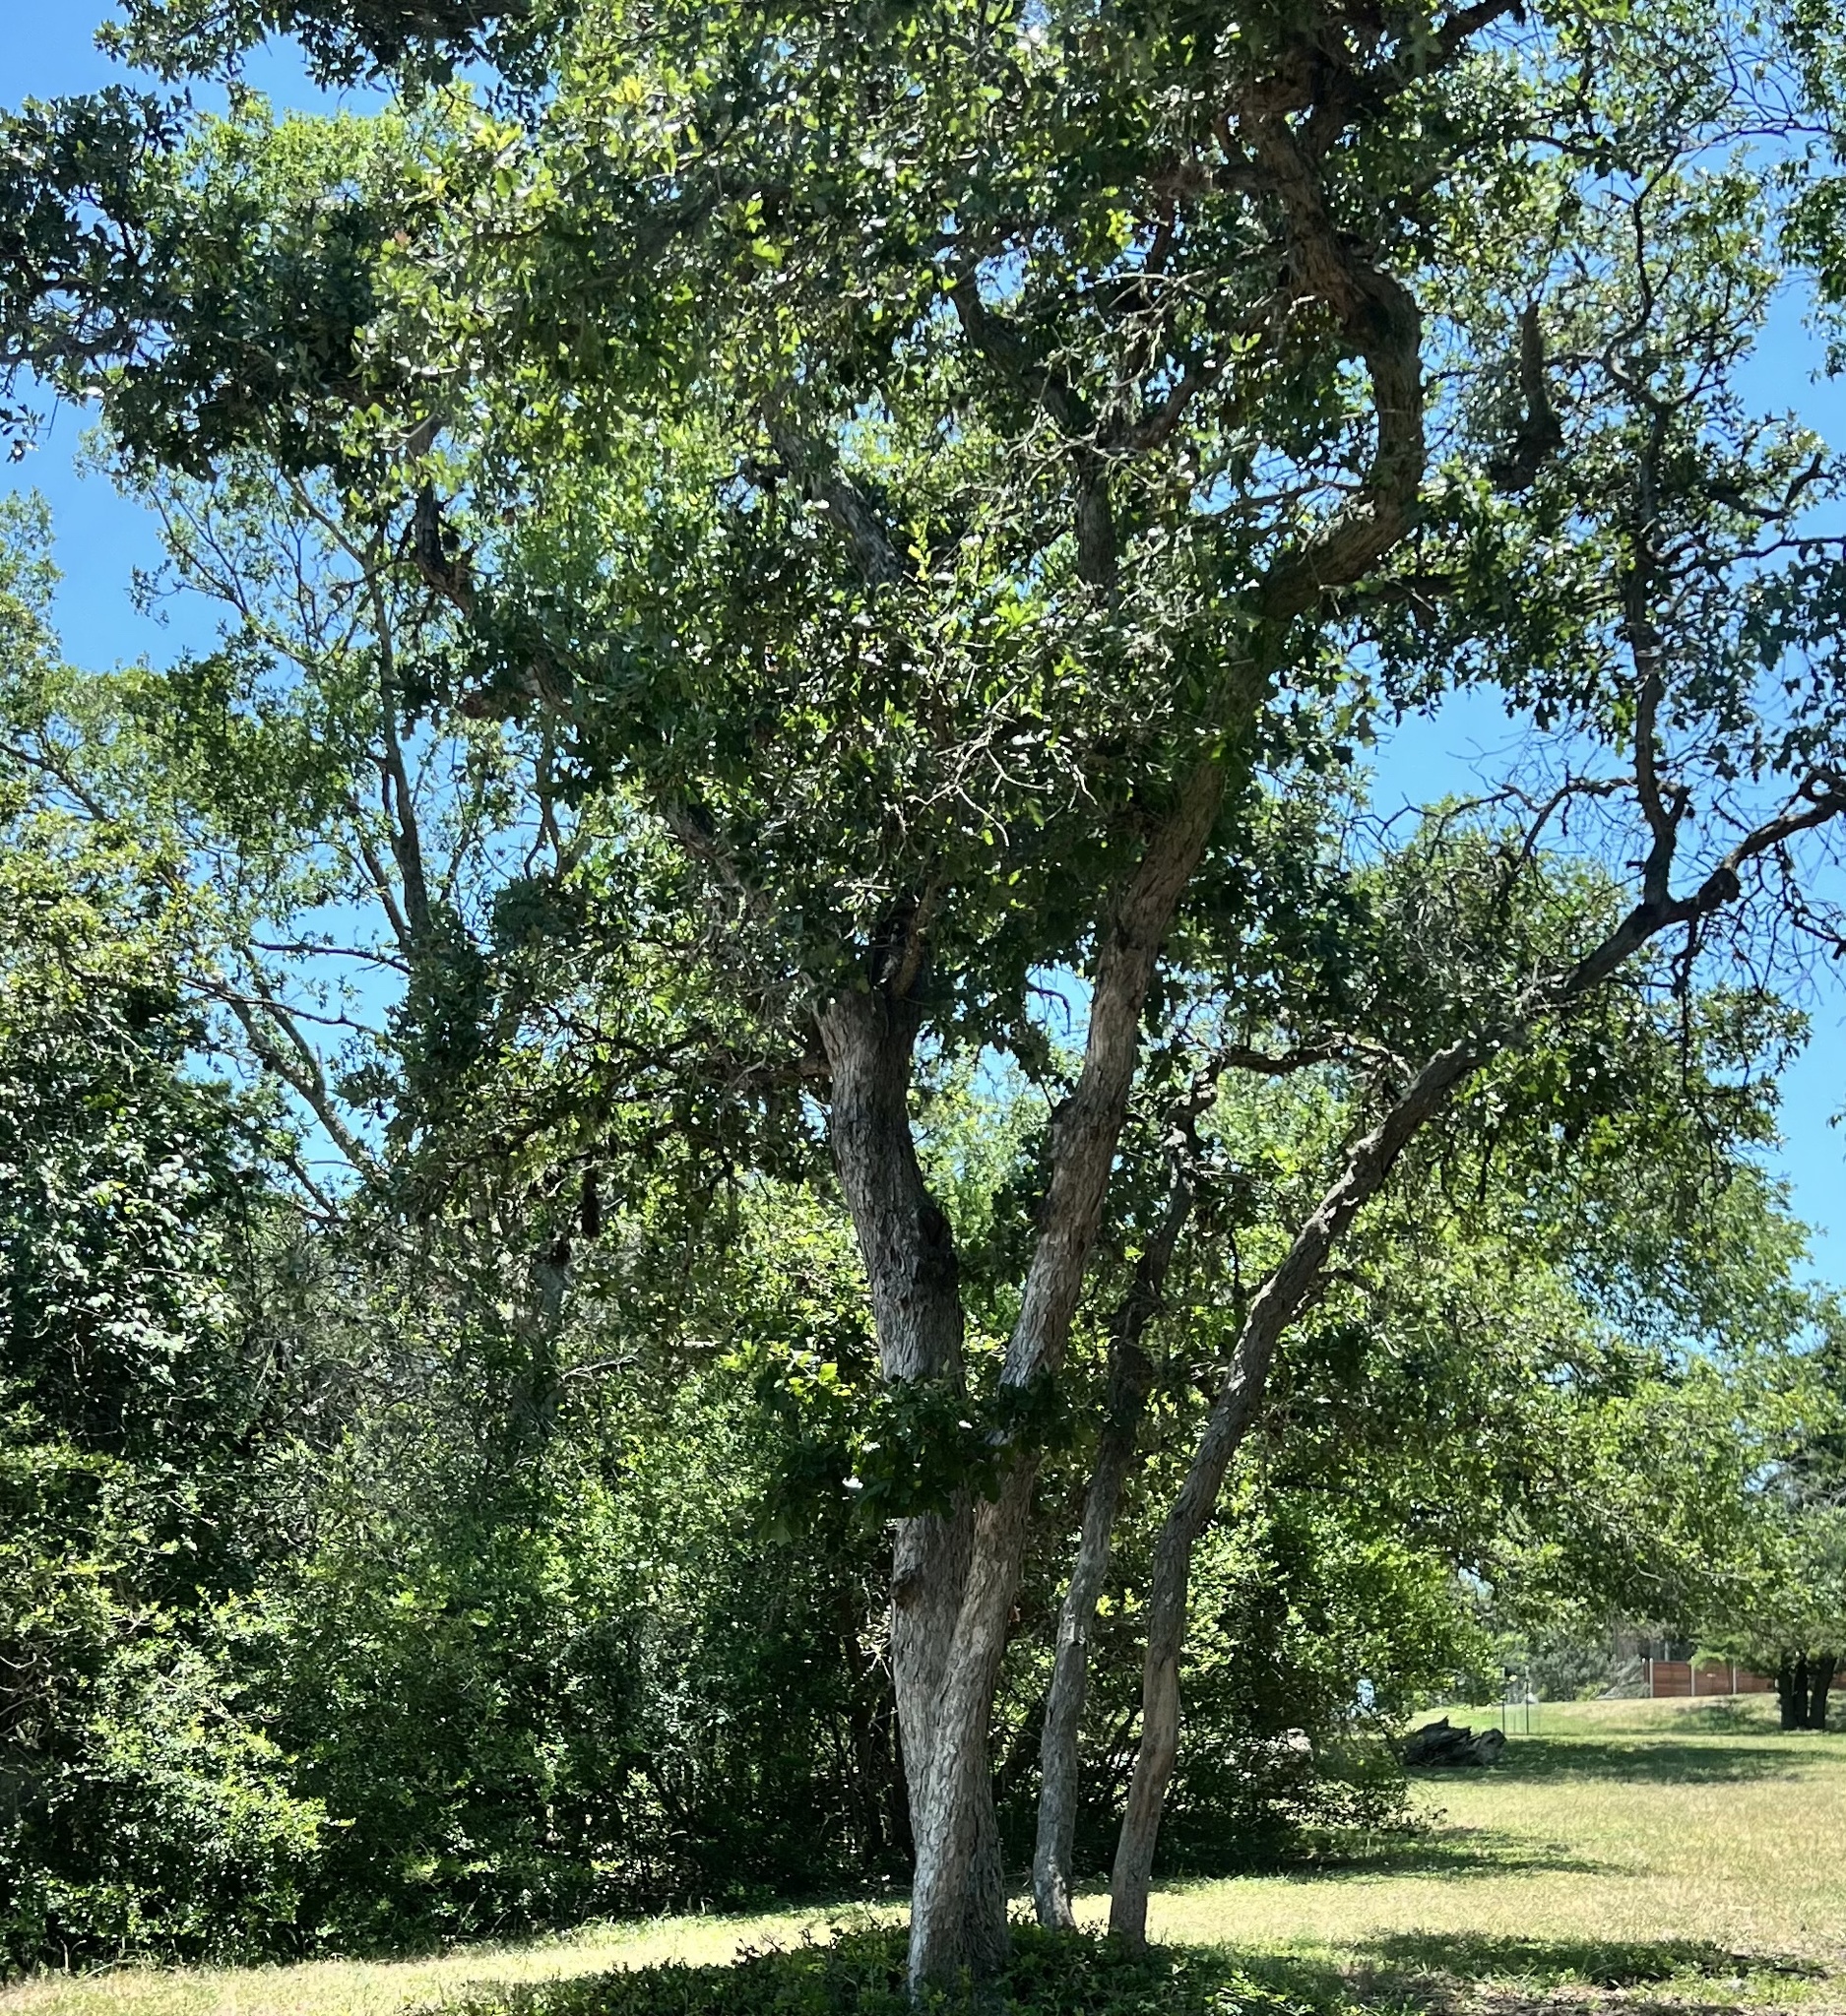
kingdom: Plantae
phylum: Tracheophyta
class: Magnoliopsida
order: Fagales
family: Fagaceae
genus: Quercus
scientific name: Quercus sinuata
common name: Durand oak
